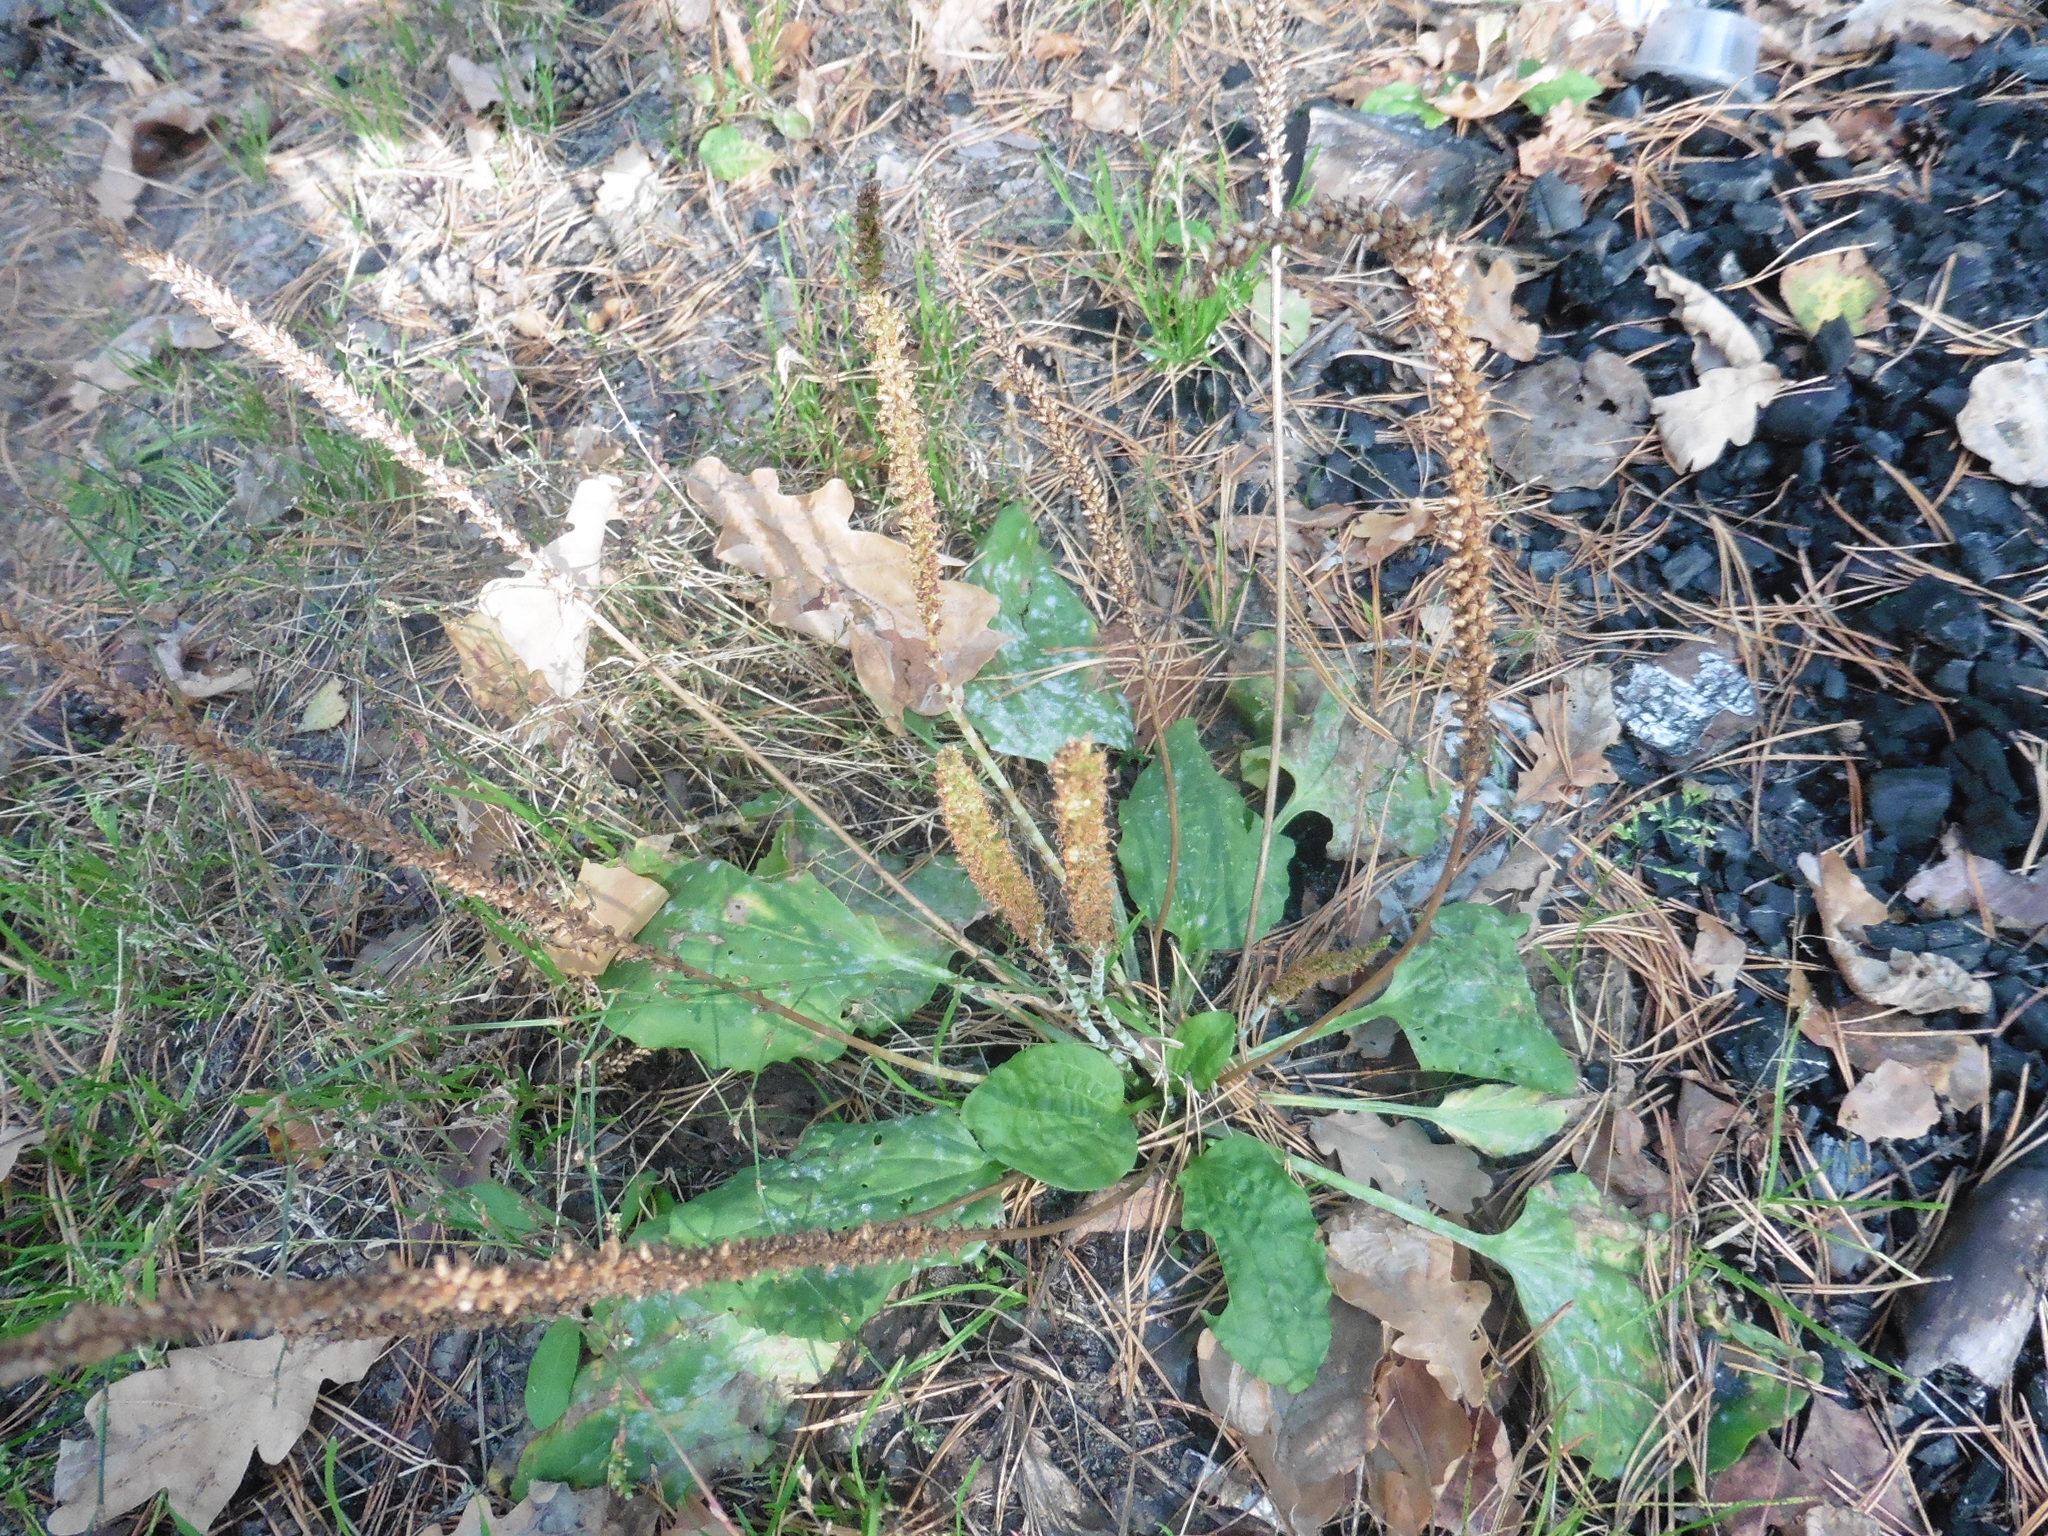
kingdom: Plantae
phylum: Tracheophyta
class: Magnoliopsida
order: Lamiales
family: Plantaginaceae
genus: Plantago
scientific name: Plantago major
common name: Common plantain
